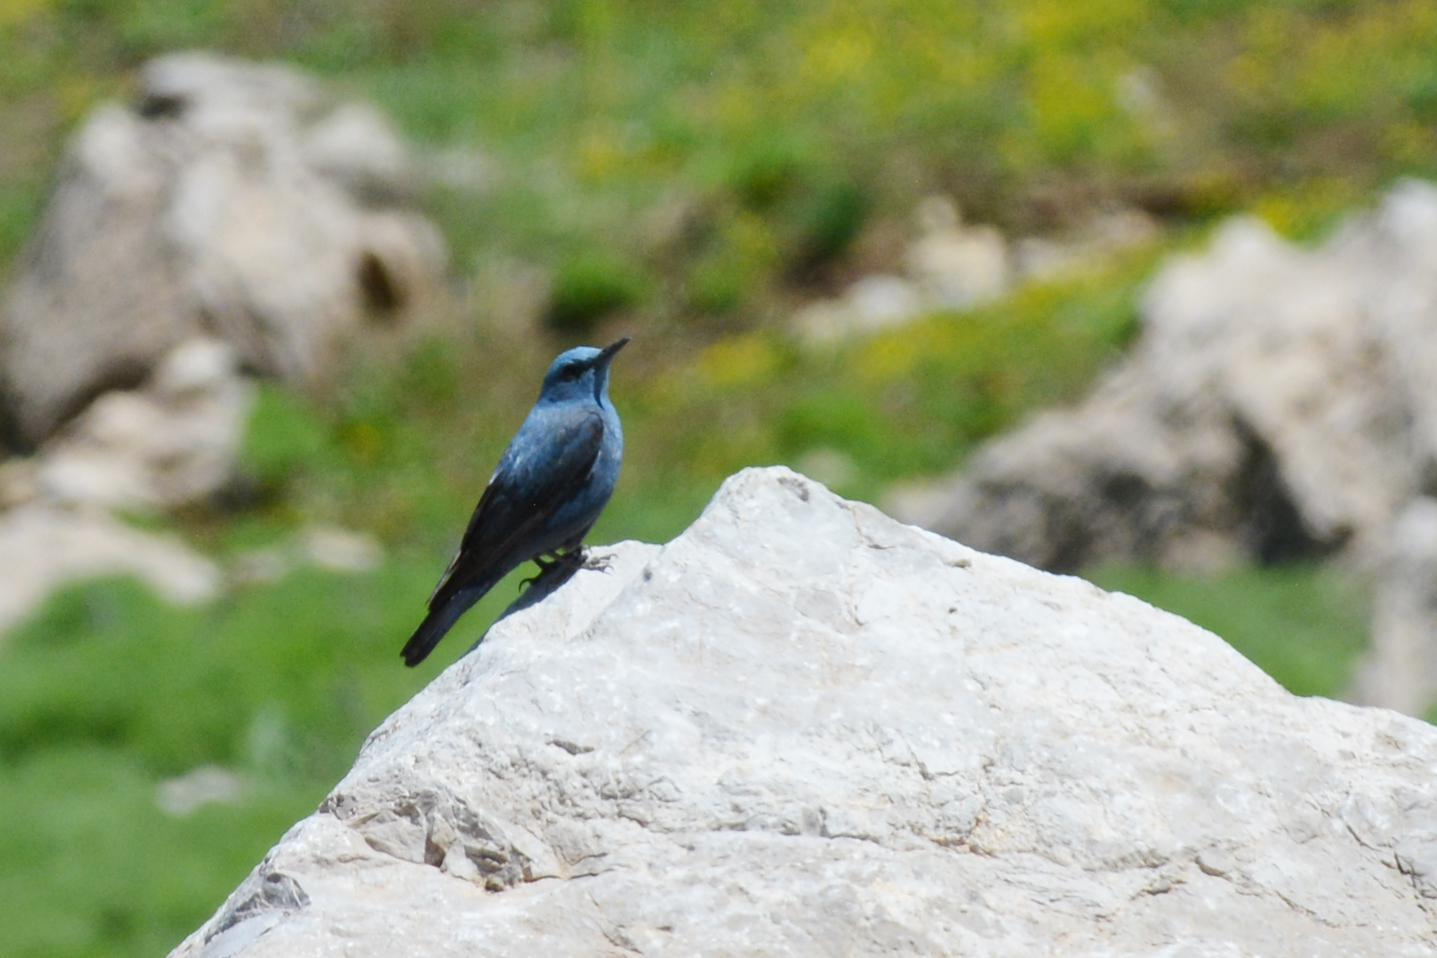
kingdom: Animalia
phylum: Chordata
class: Aves
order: Passeriformes
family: Muscicapidae
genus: Monticola
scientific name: Monticola solitarius
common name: Blue rock thrush
